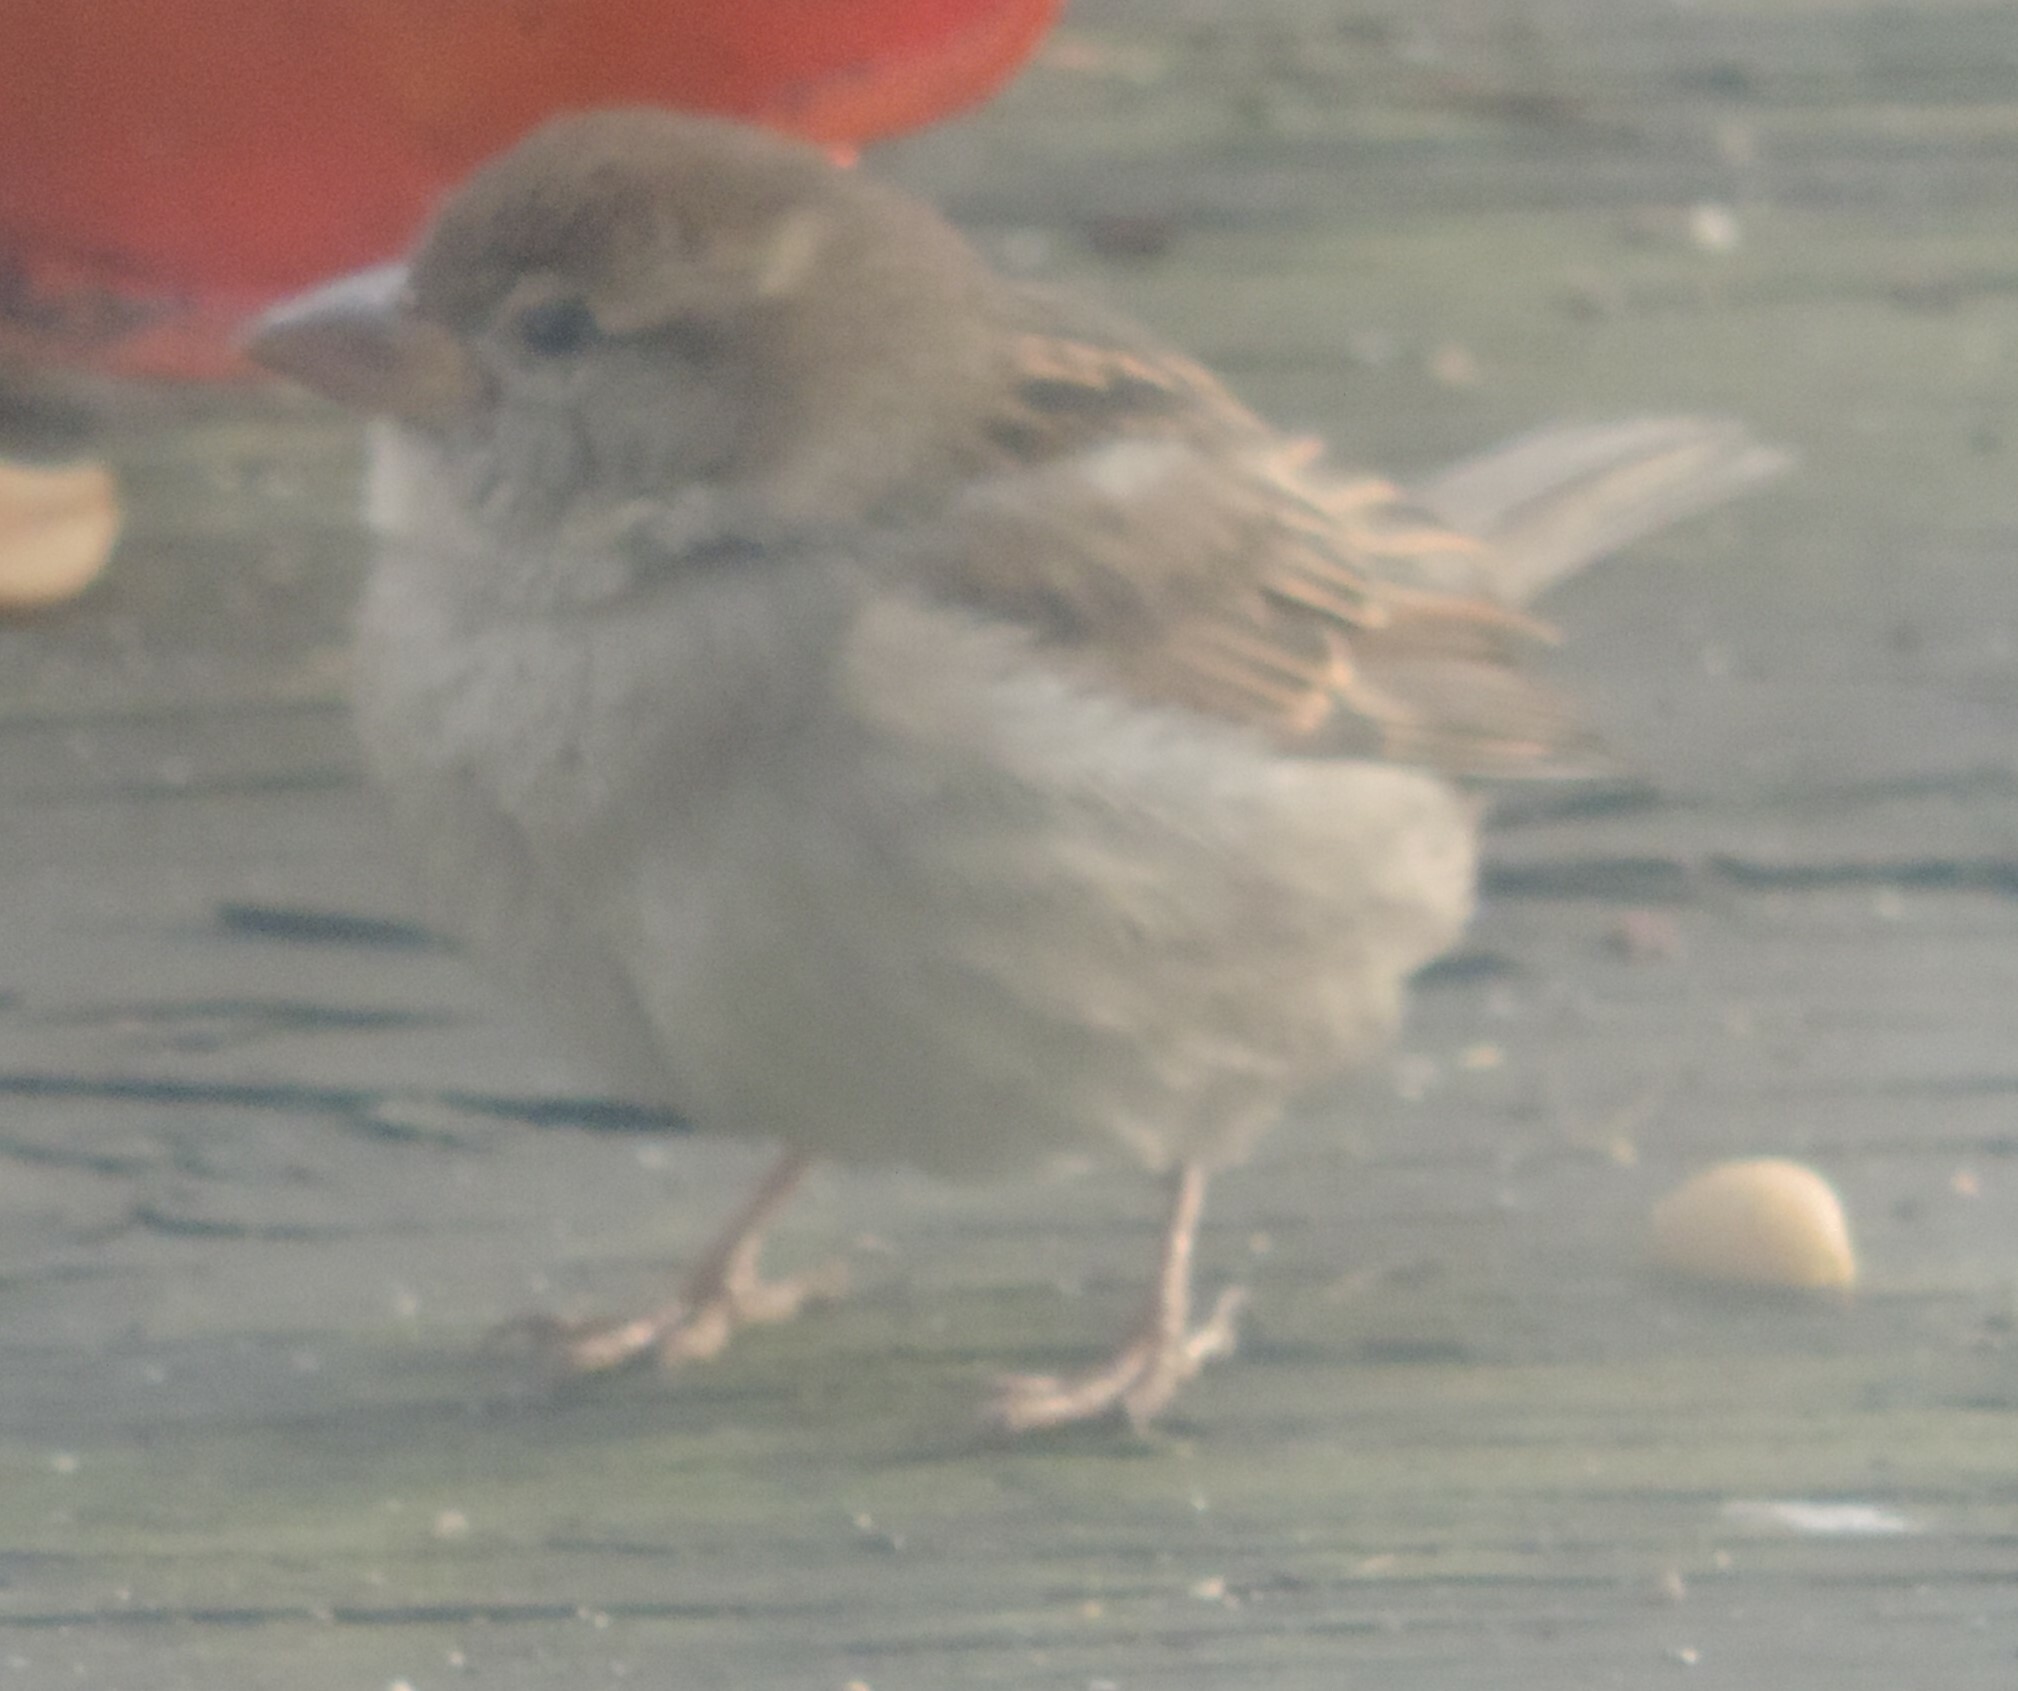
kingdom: Animalia
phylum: Chordata
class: Aves
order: Passeriformes
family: Passeridae
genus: Passer
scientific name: Passer domesticus
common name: House sparrow
